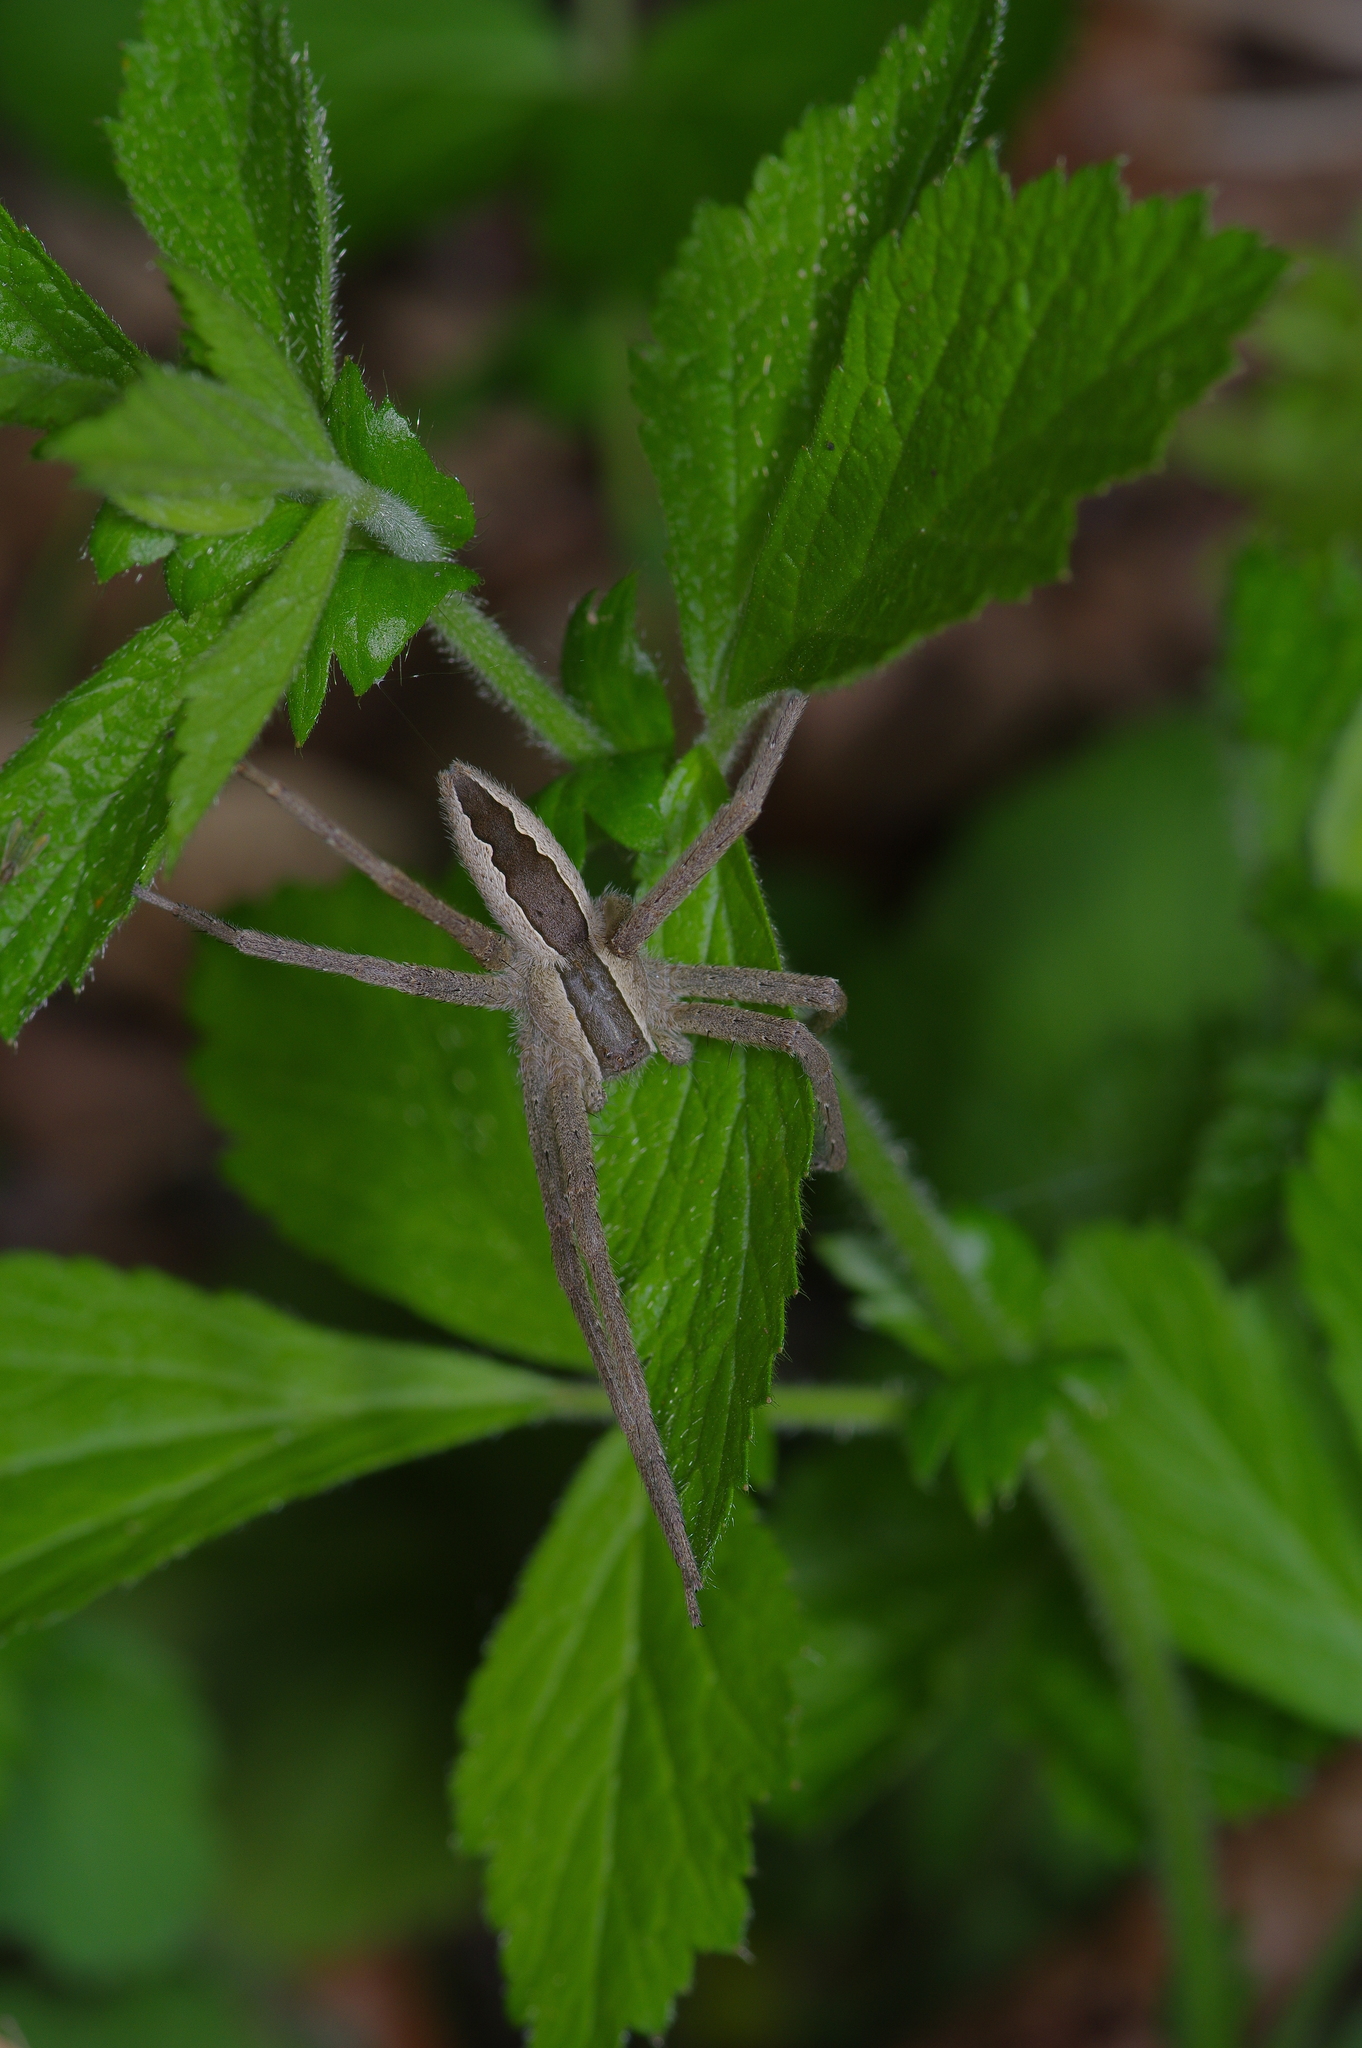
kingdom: Animalia
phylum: Arthropoda
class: Arachnida
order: Araneae
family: Pisauridae
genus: Pisaurina
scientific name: Pisaurina mira
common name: American nursery web spider
